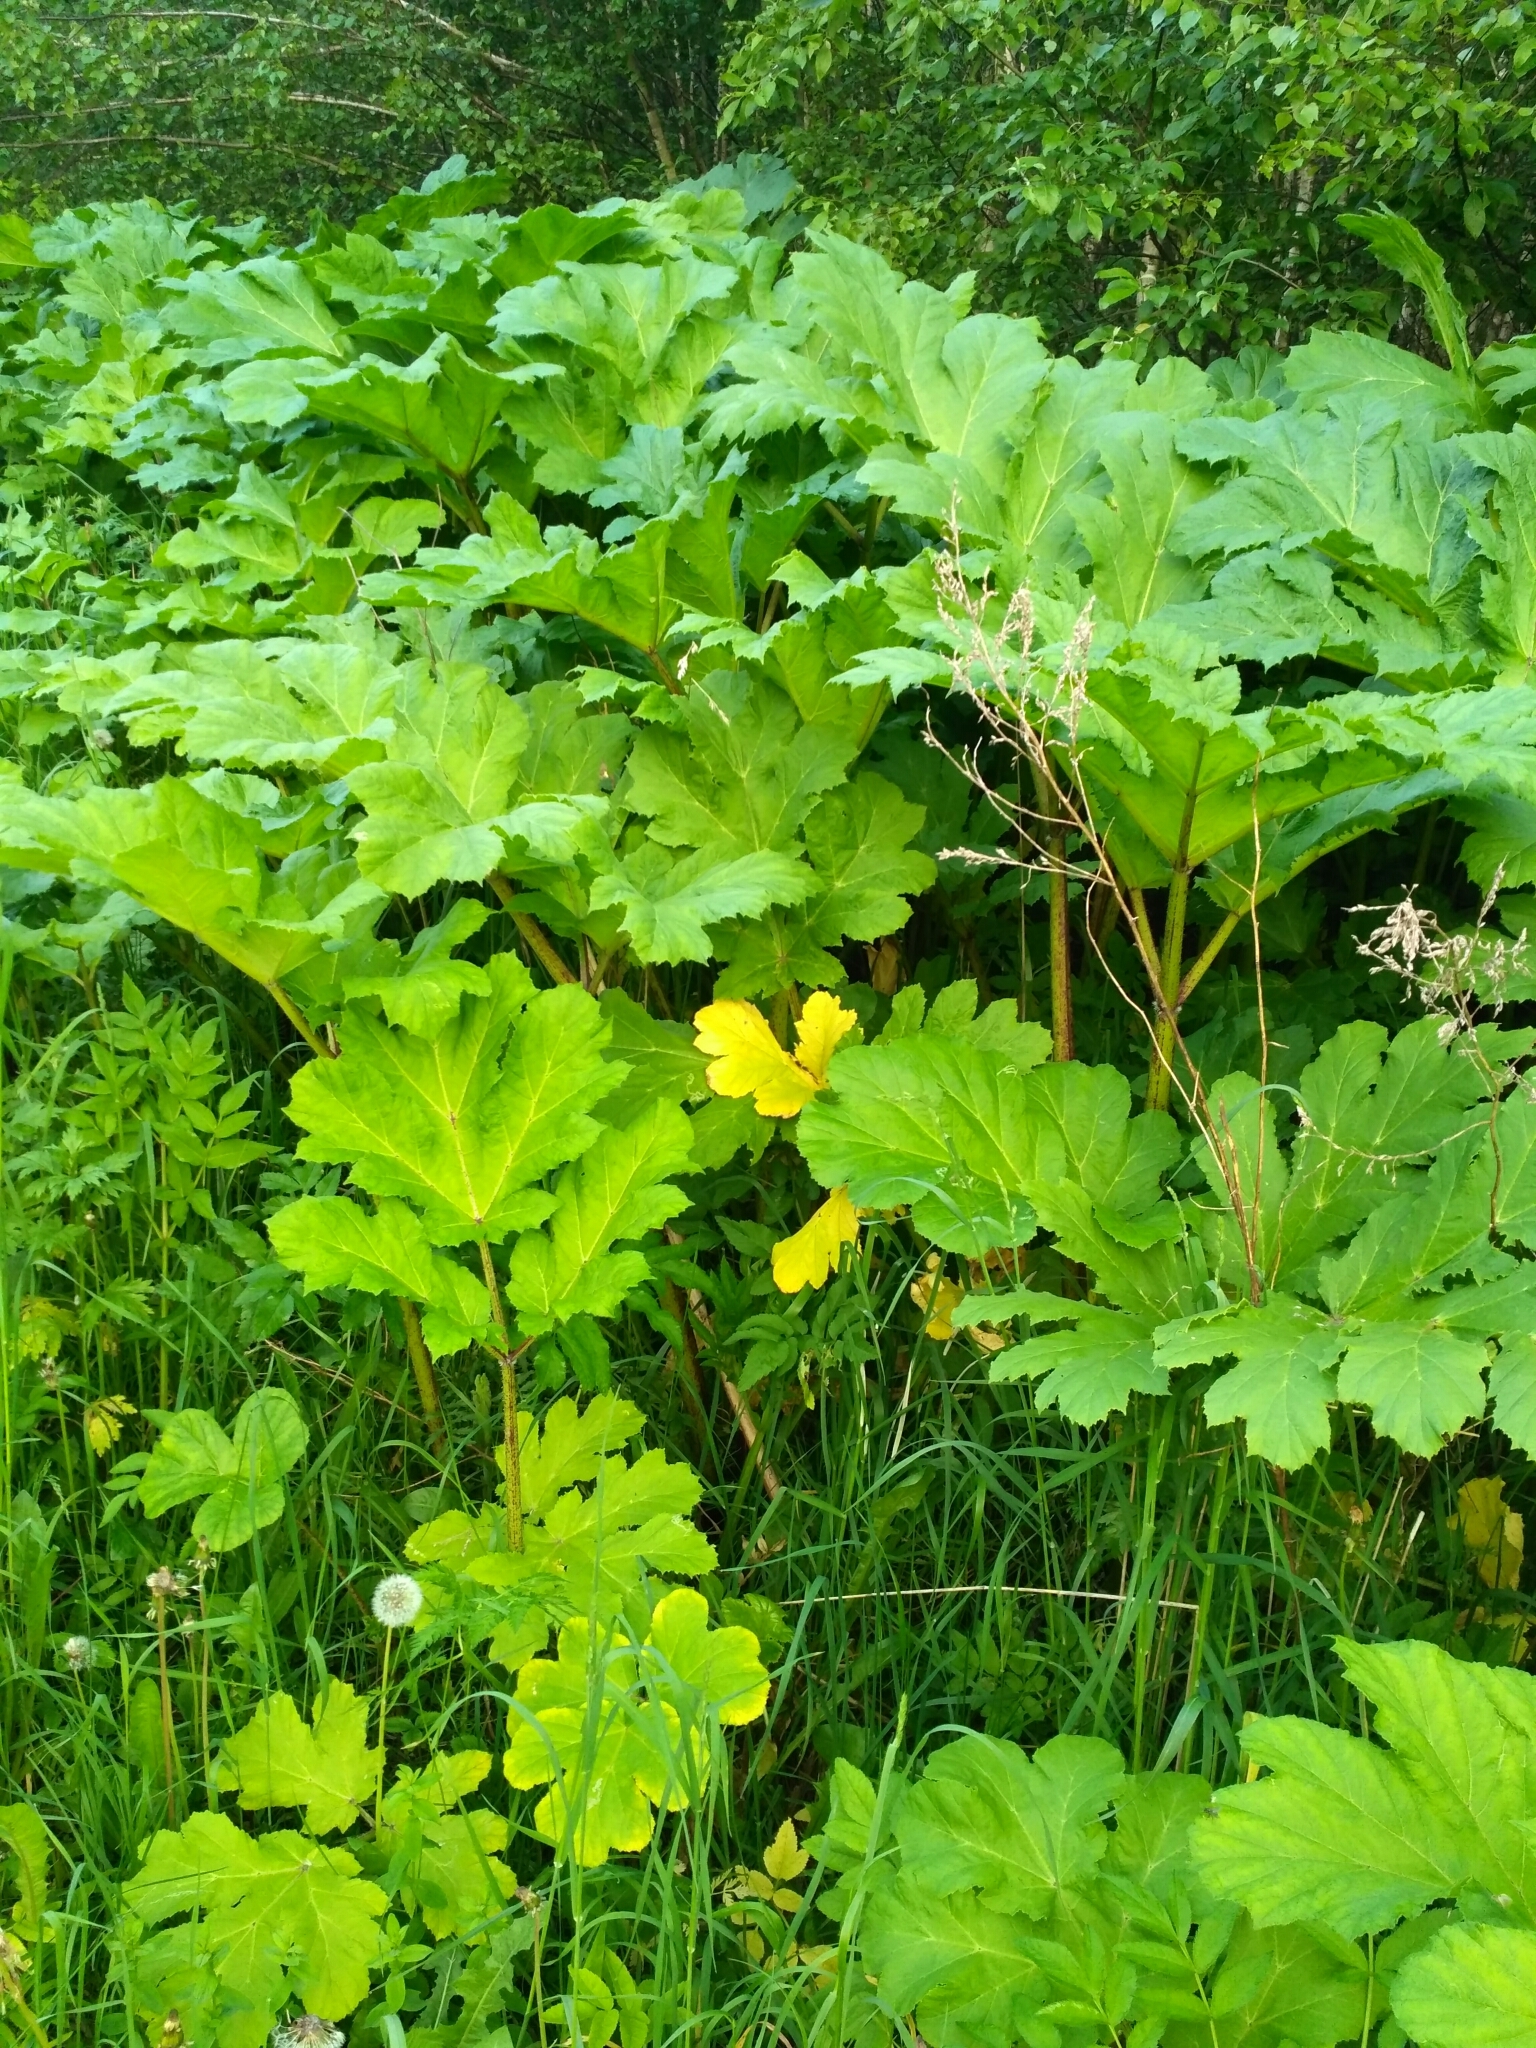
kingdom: Plantae
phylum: Tracheophyta
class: Magnoliopsida
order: Apiales
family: Apiaceae
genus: Heracleum
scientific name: Heracleum sosnowskyi
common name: Sosnowsky's hogweed
